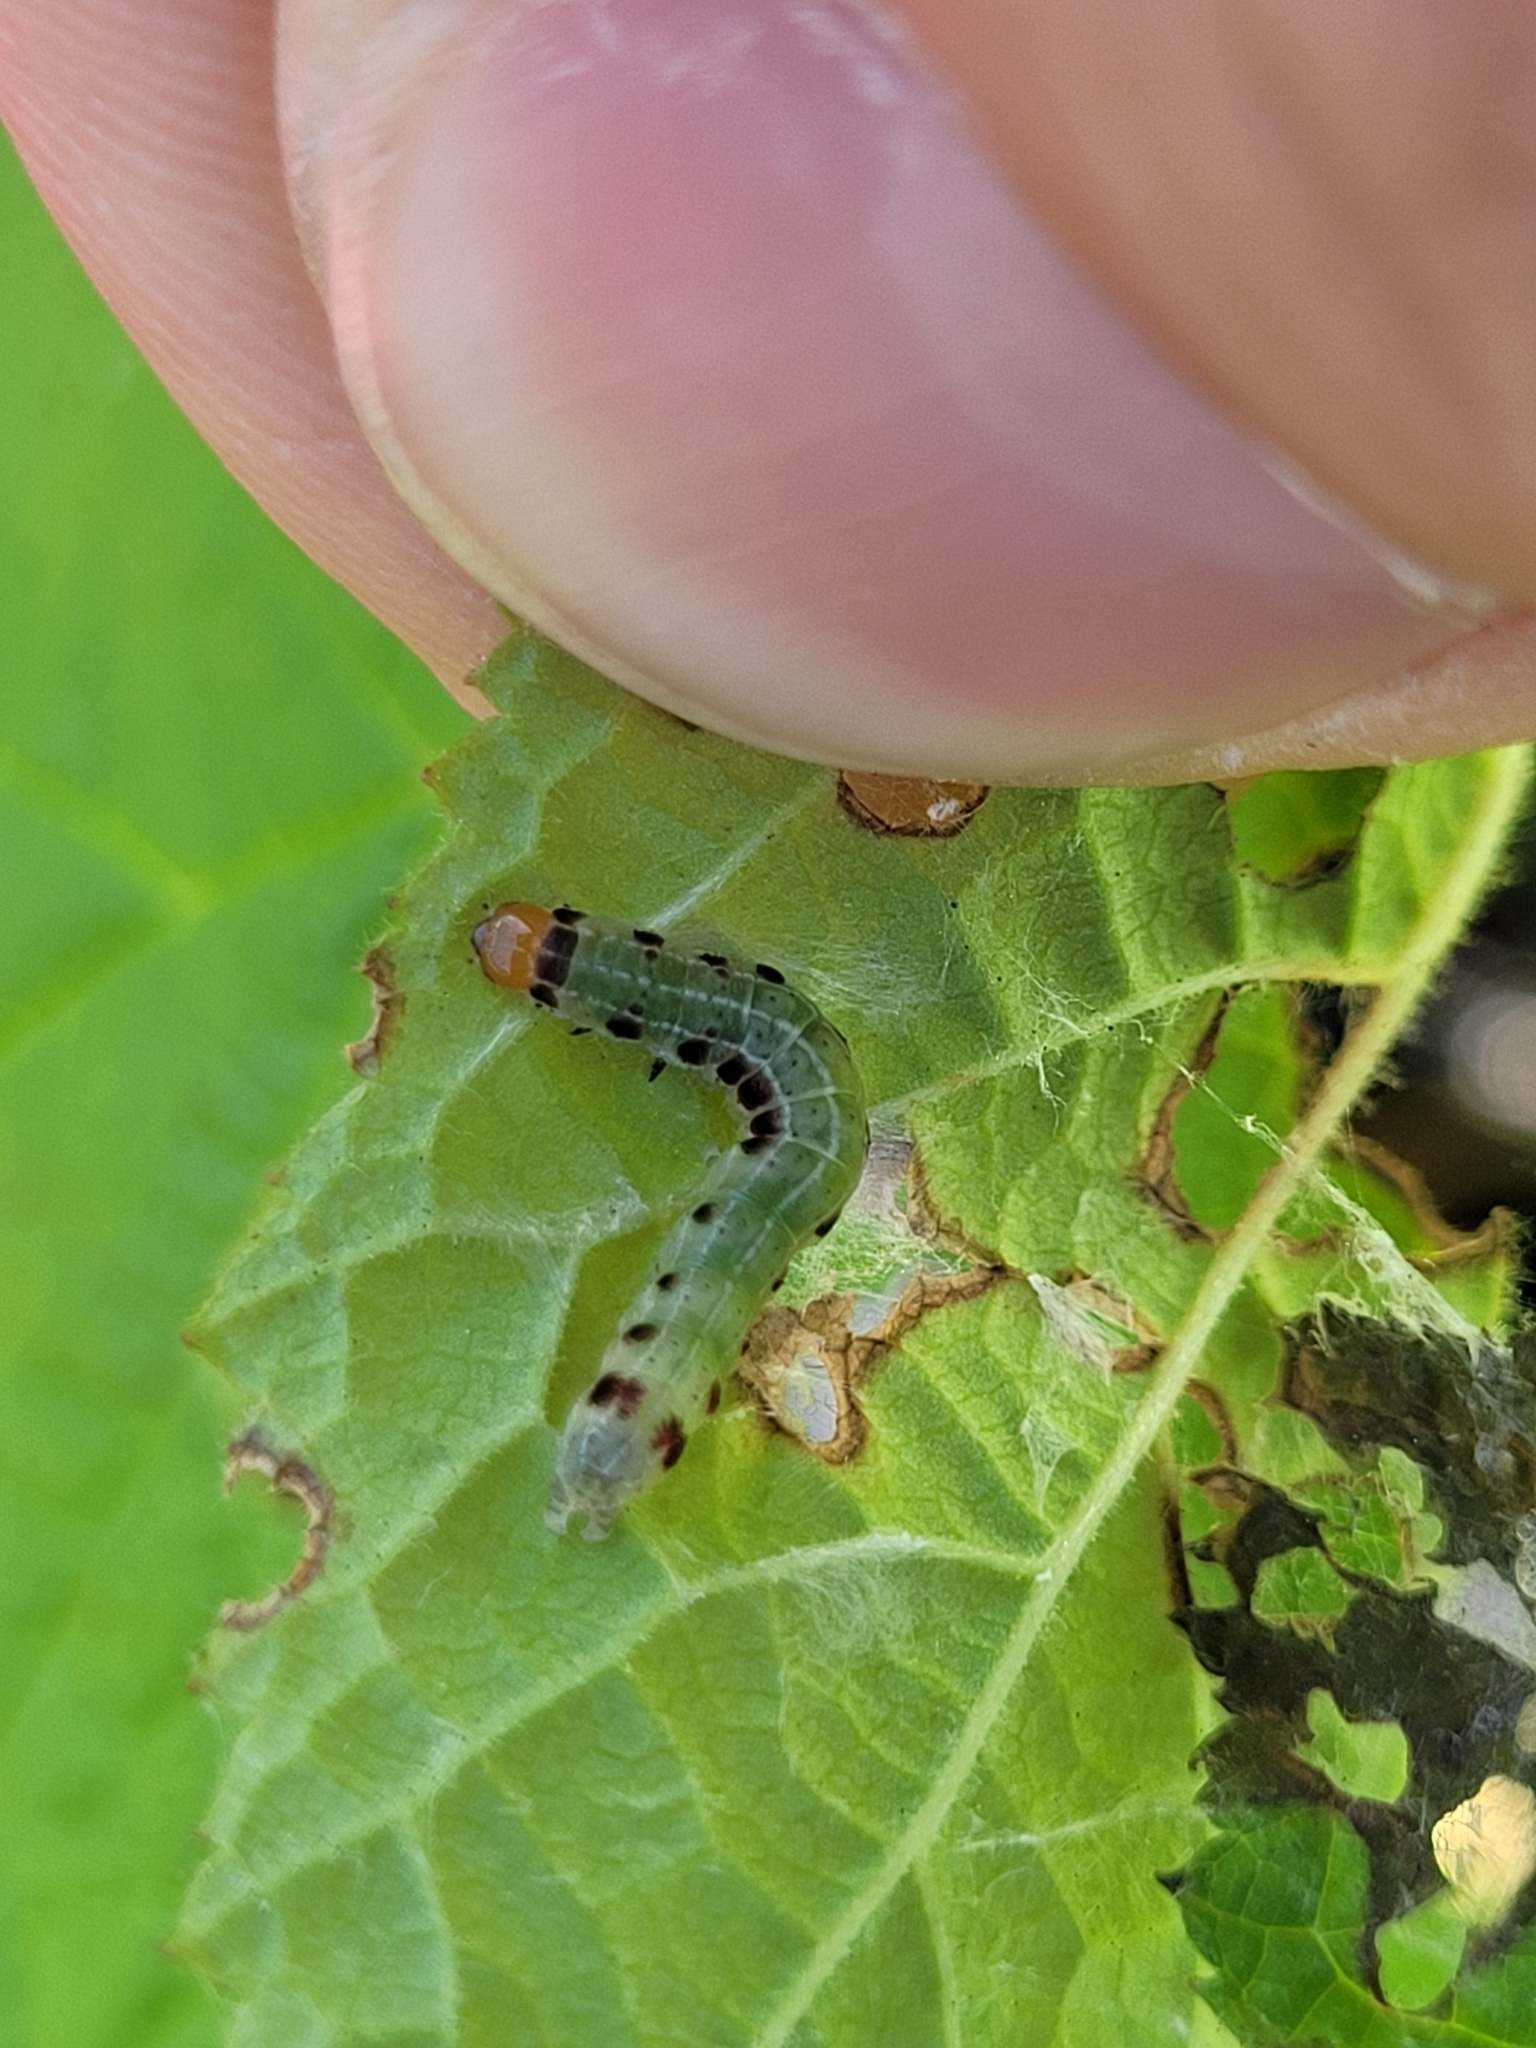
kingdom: Animalia
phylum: Arthropoda
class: Insecta
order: Lepidoptera
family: Noctuidae
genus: Achatia
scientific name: Achatia confusa
